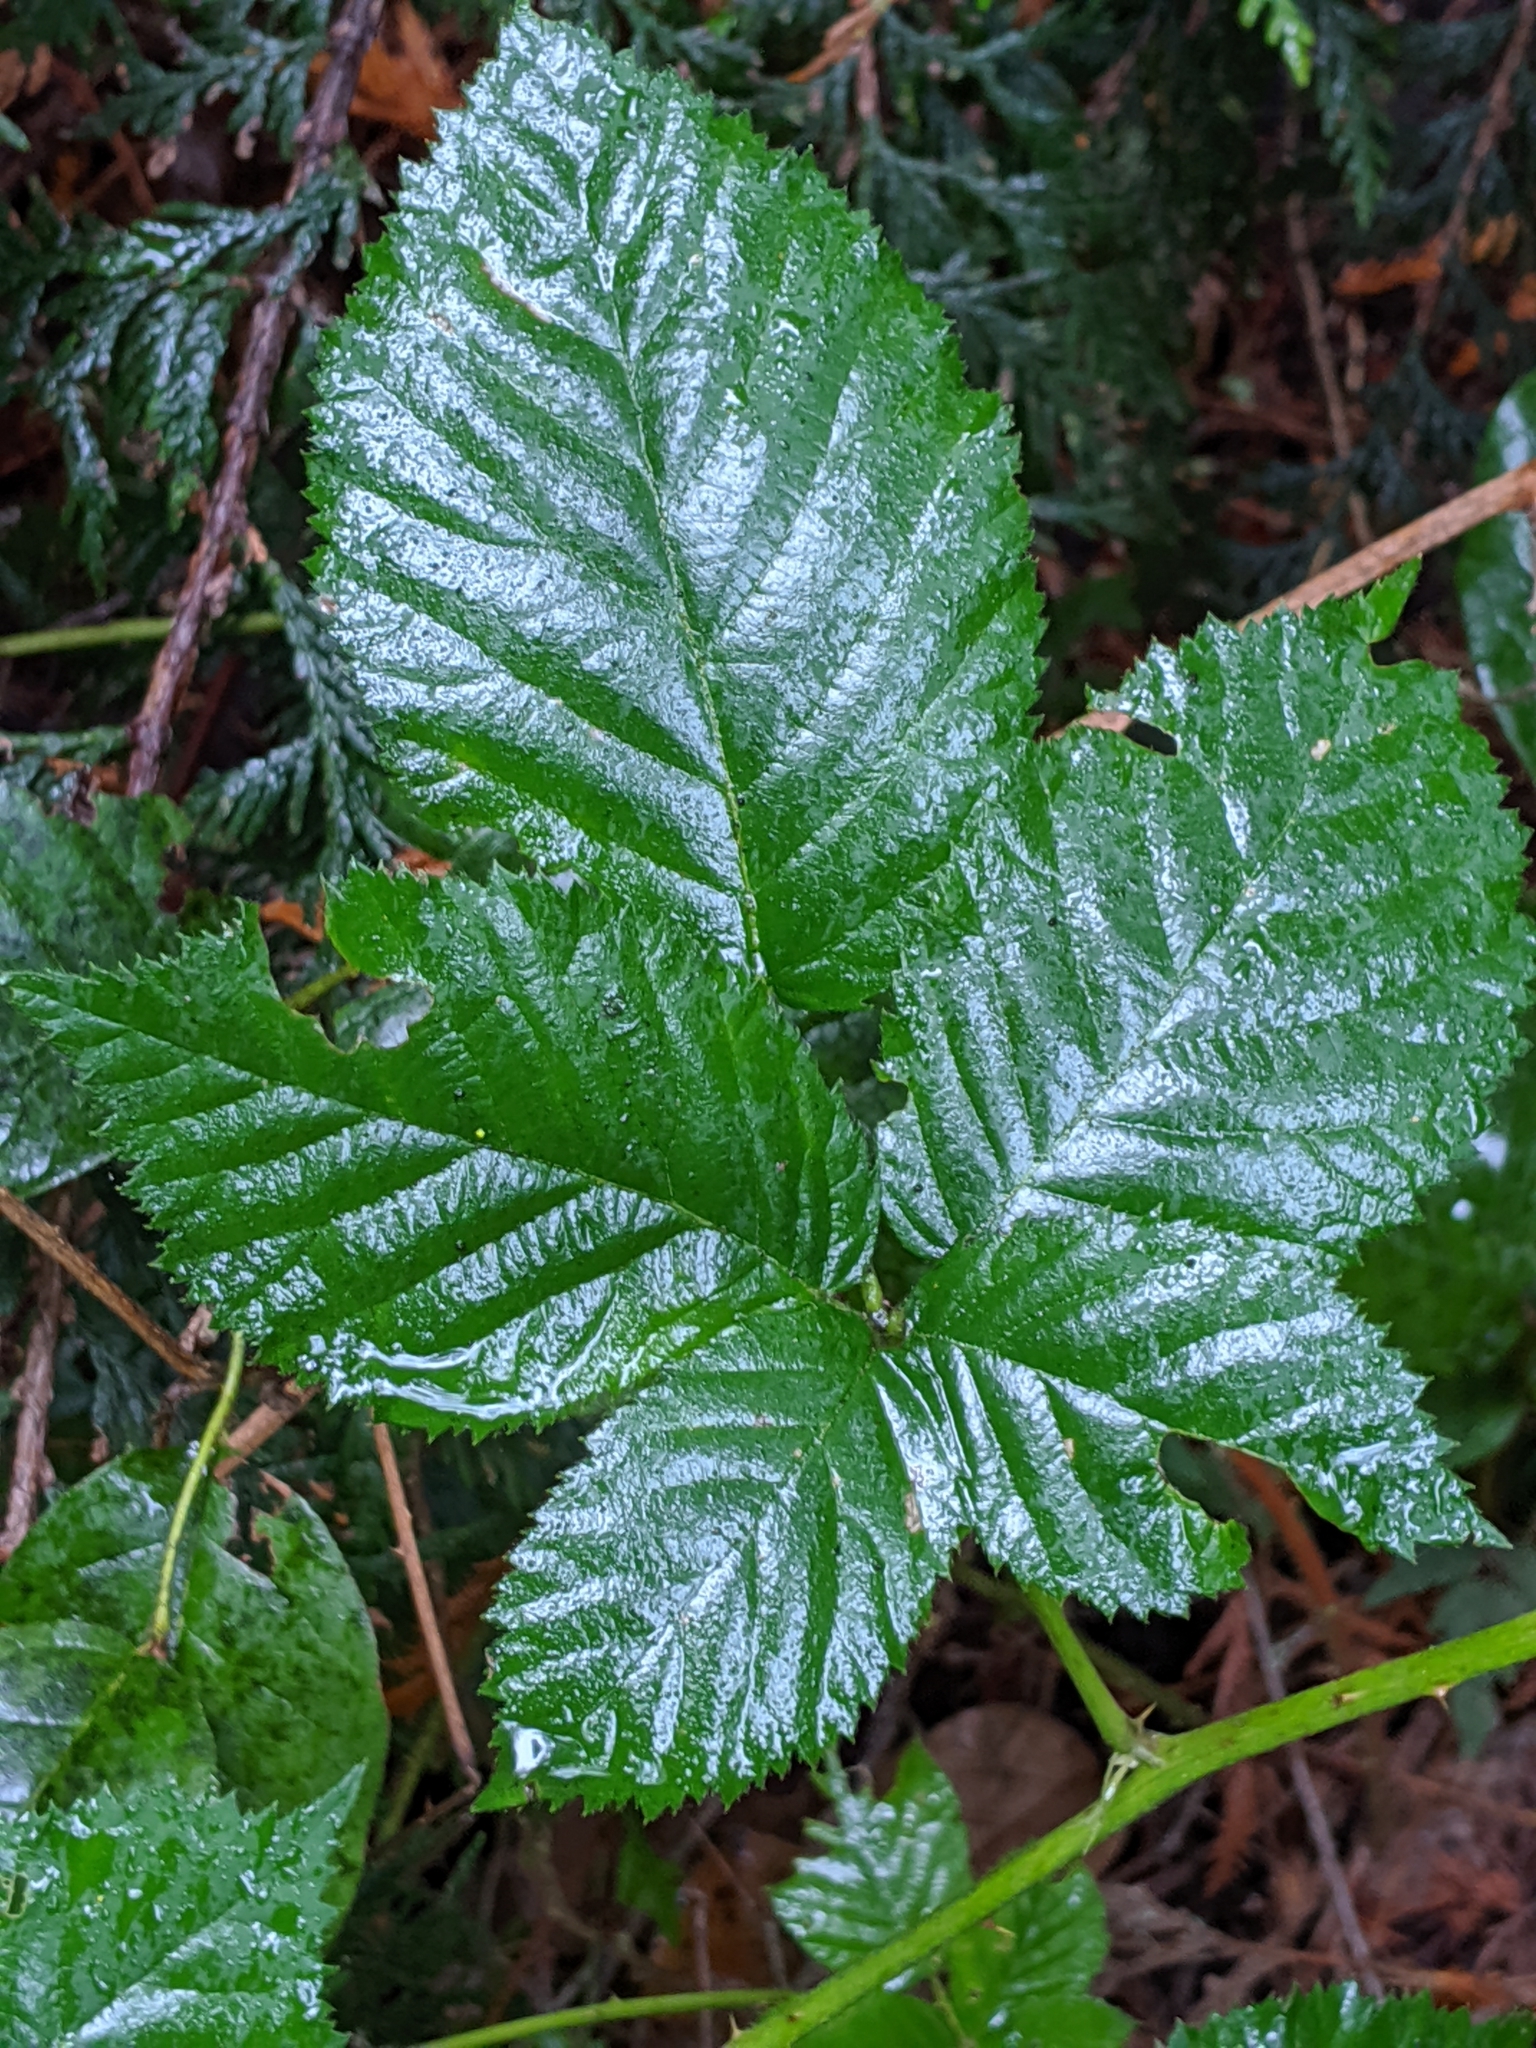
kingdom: Plantae
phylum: Tracheophyta
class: Magnoliopsida
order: Rosales
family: Rosaceae
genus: Rubus
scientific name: Rubus bifrons
